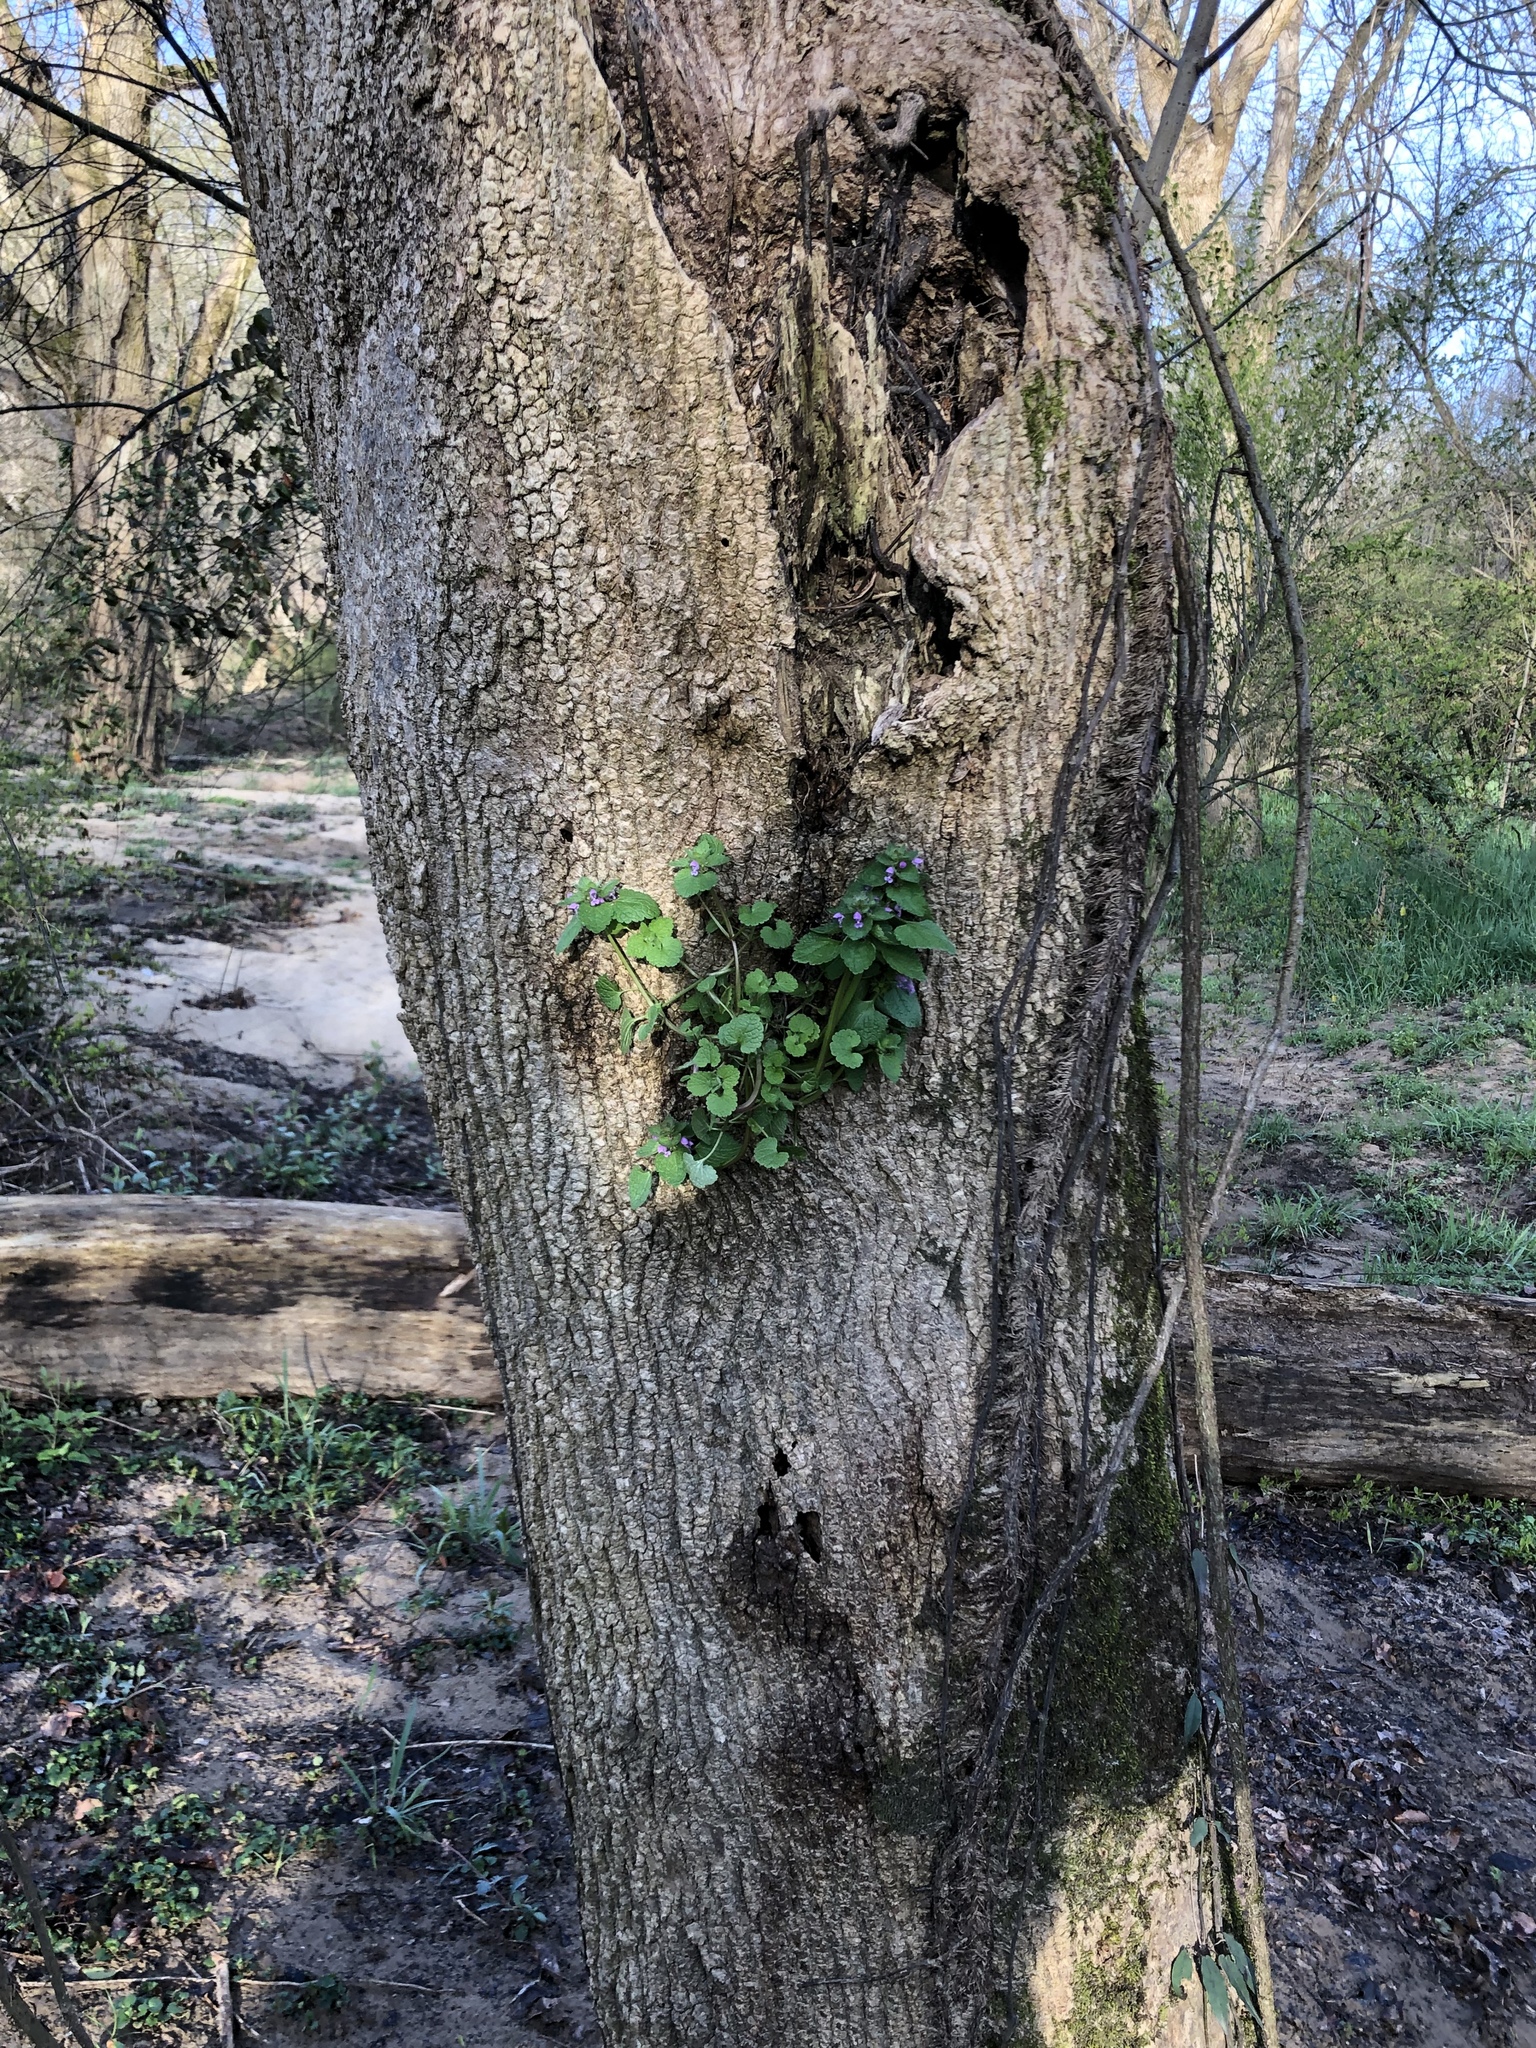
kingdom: Plantae
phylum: Tracheophyta
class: Magnoliopsida
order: Lamiales
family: Lamiaceae
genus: Lamium
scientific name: Lamium purpureum
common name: Red dead-nettle
